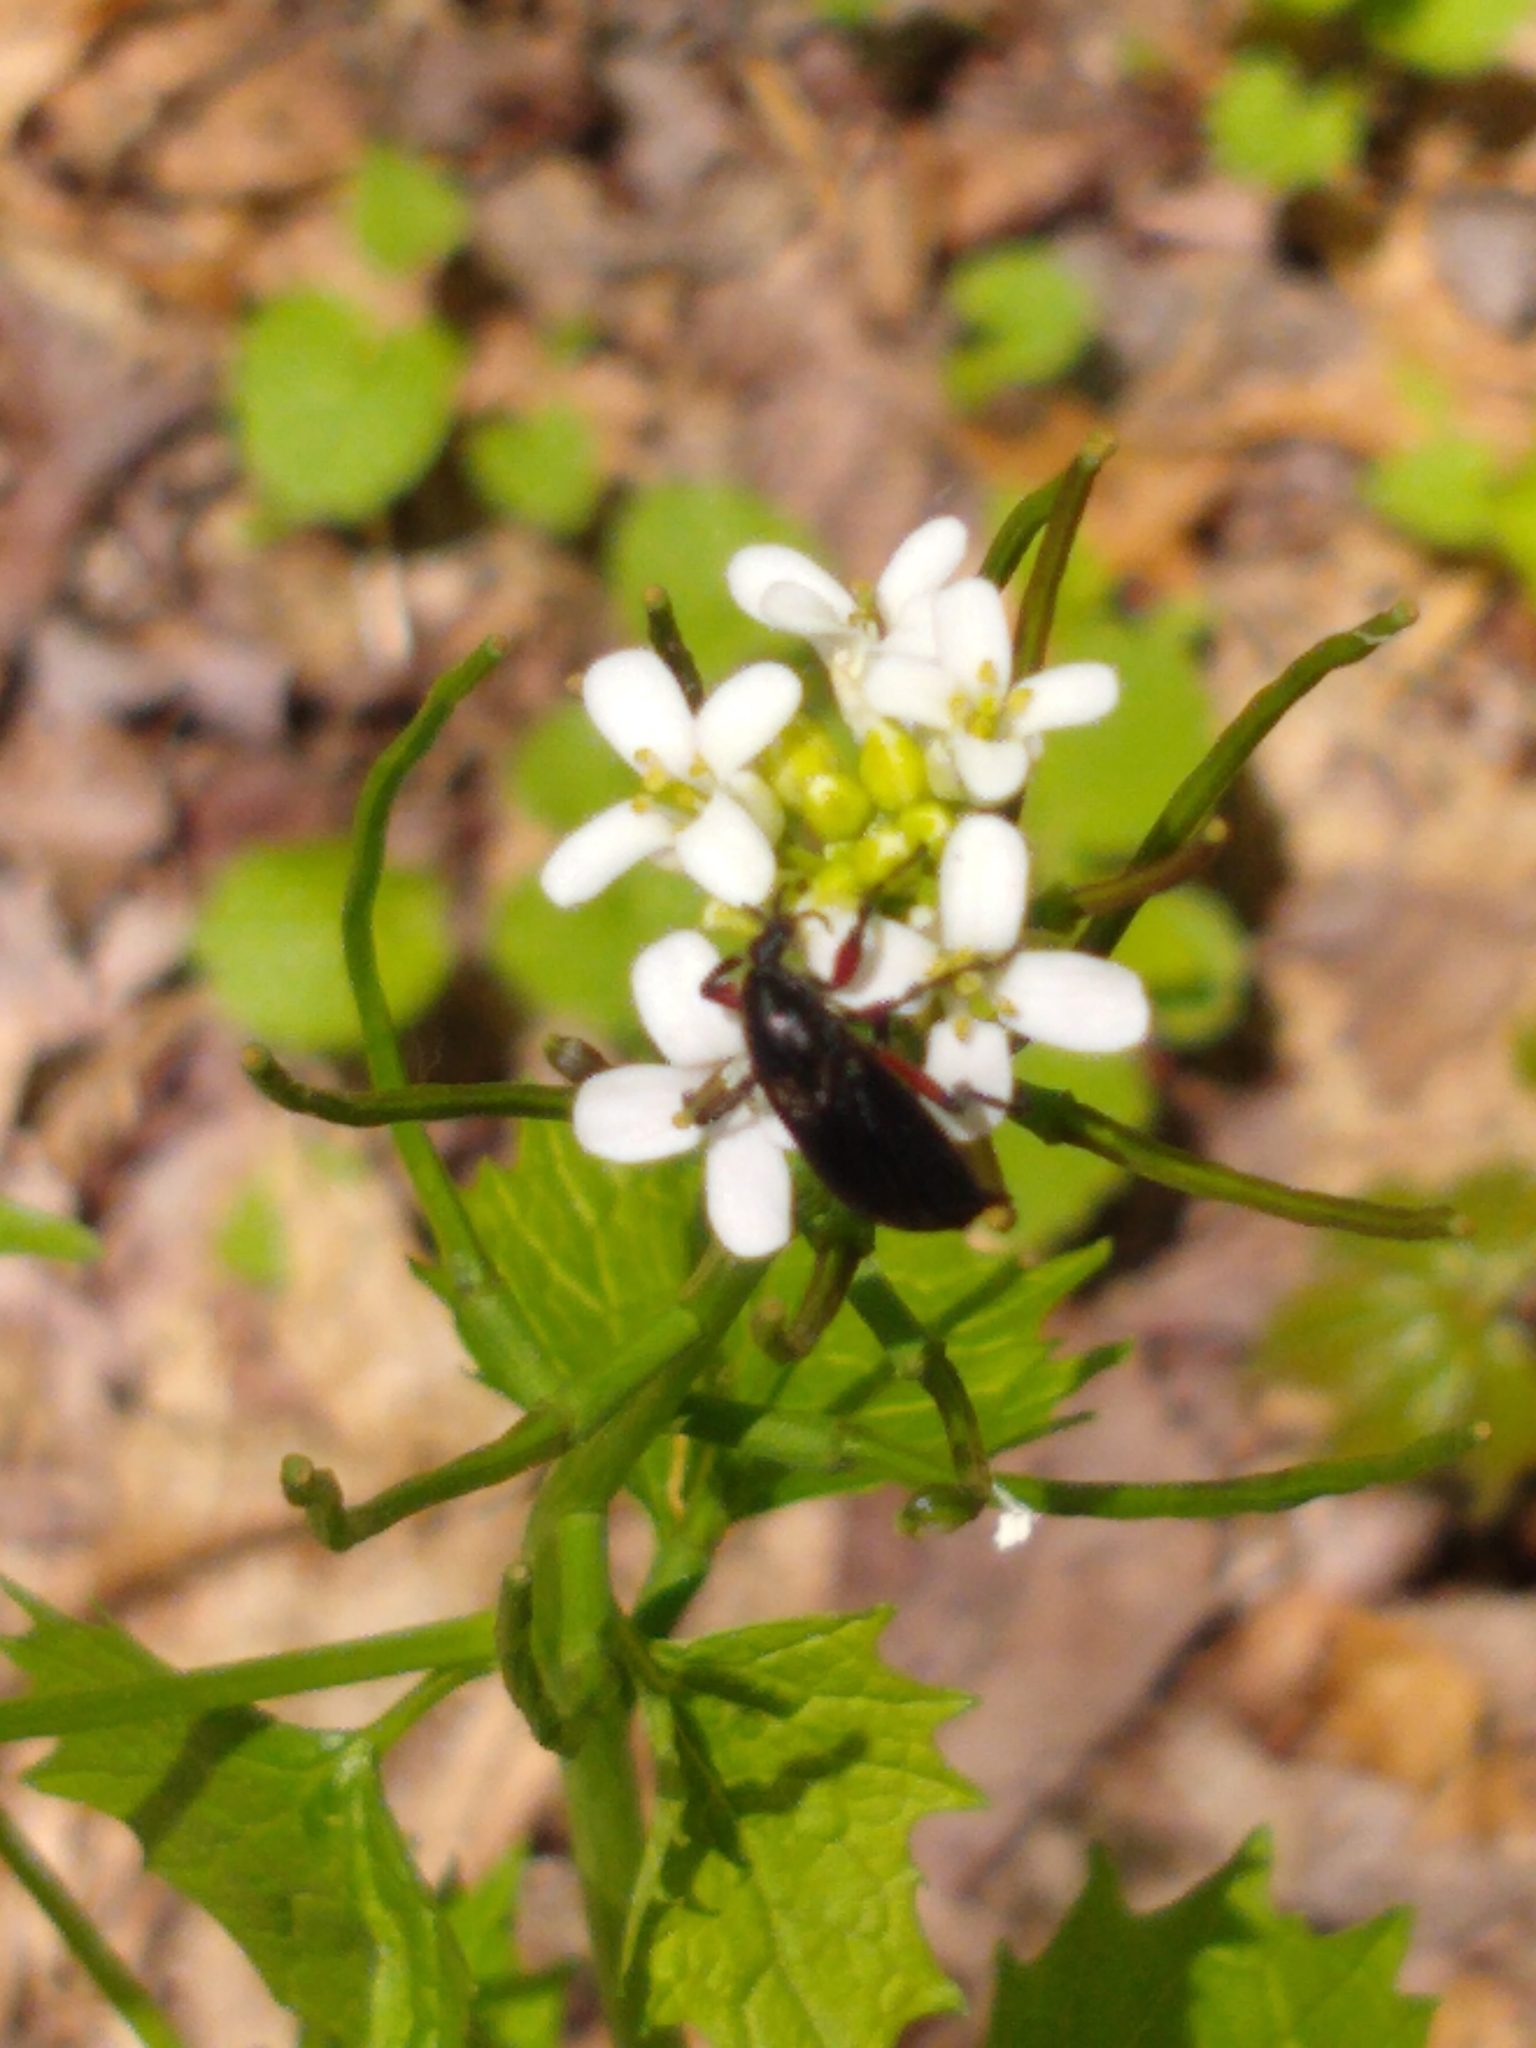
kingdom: Animalia
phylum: Arthropoda
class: Insecta
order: Diptera
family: Bibionidae
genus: Bibio
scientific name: Bibio femoratus
